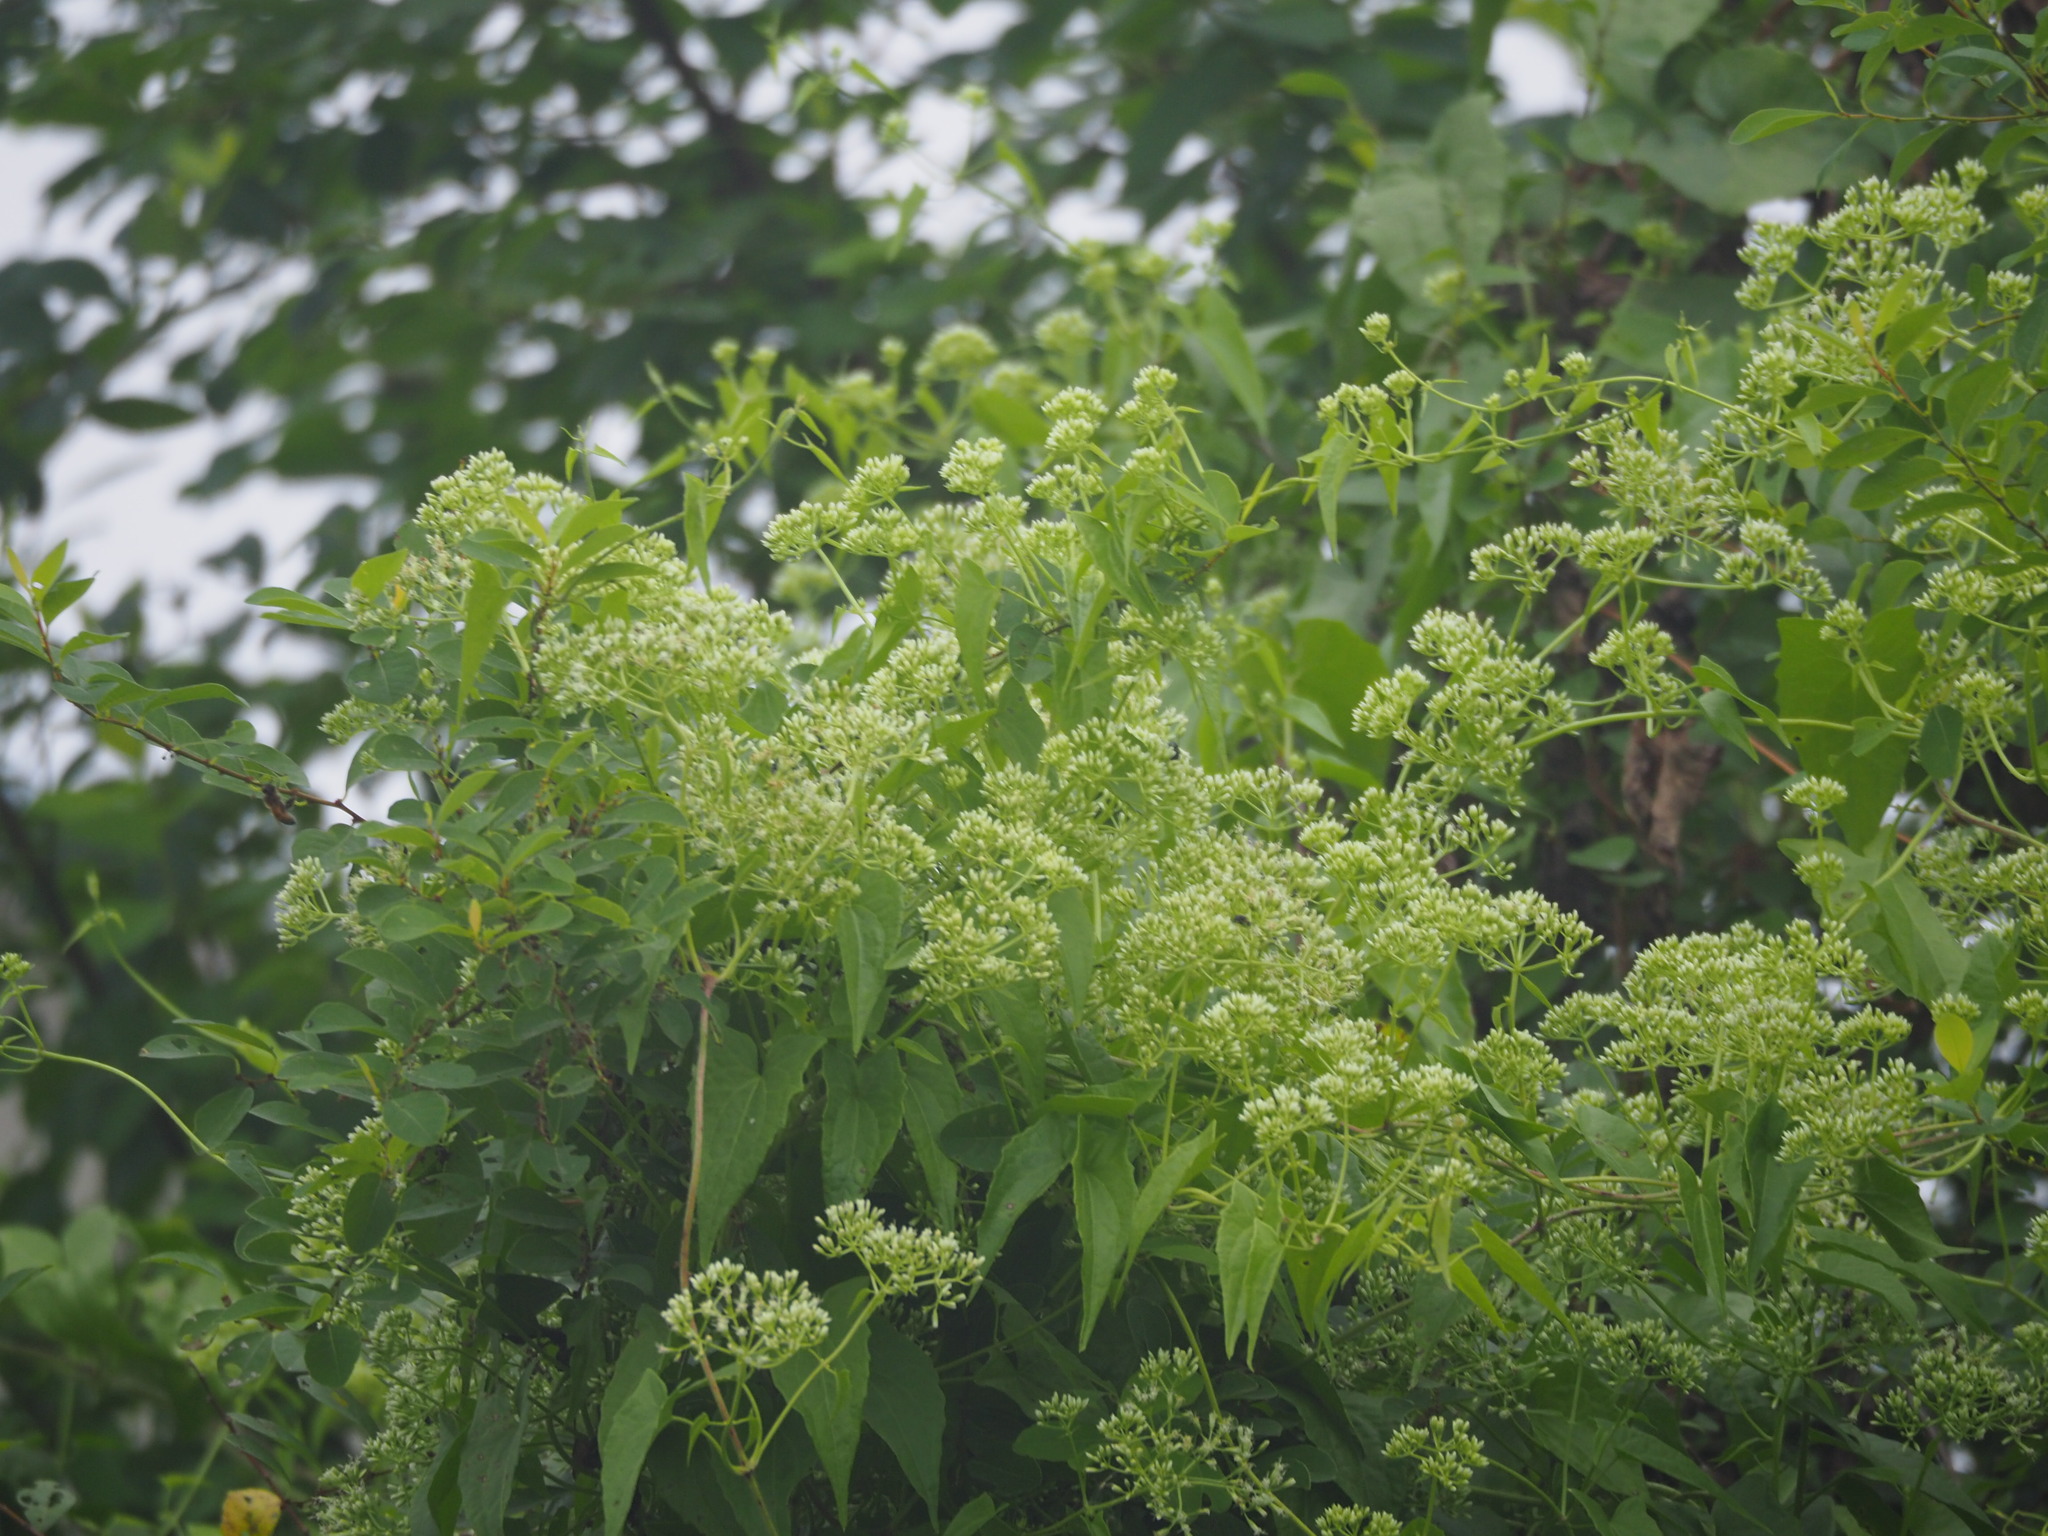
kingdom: Plantae
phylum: Tracheophyta
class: Magnoliopsida
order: Asterales
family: Asteraceae
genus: Mikania
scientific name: Mikania micrantha
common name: Mile-a-minute
